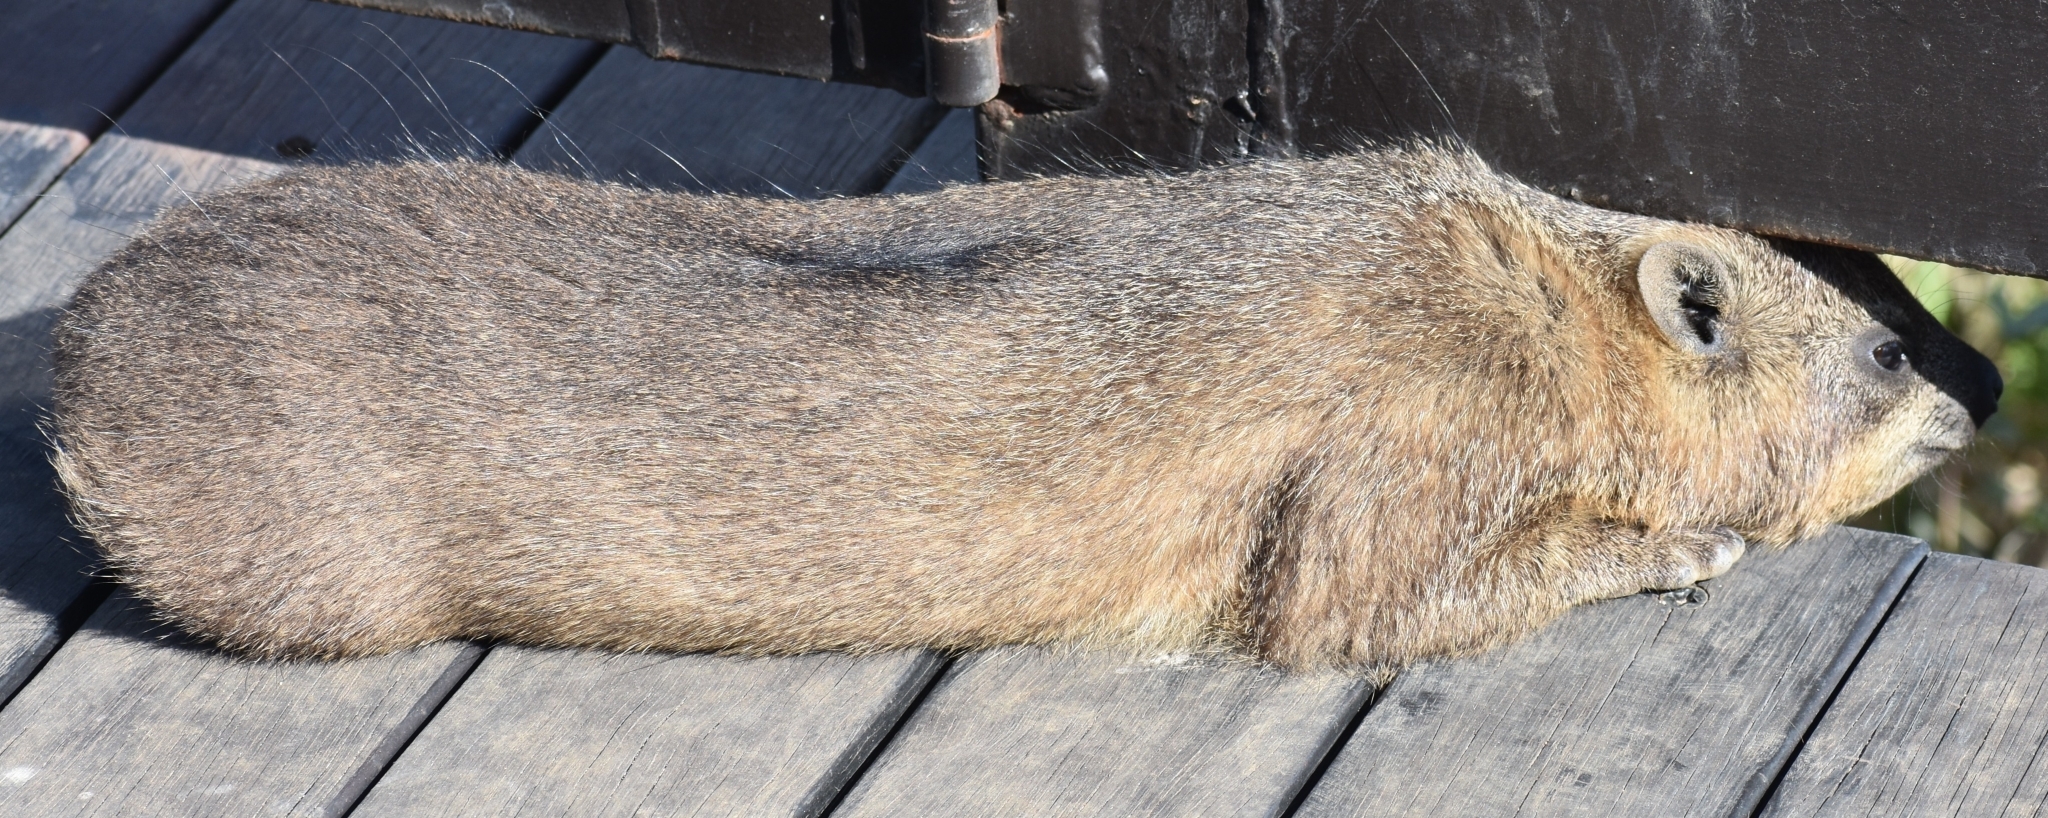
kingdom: Animalia
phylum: Chordata
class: Mammalia
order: Hyracoidea
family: Procaviidae
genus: Procavia
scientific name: Procavia capensis
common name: Rock hyrax
